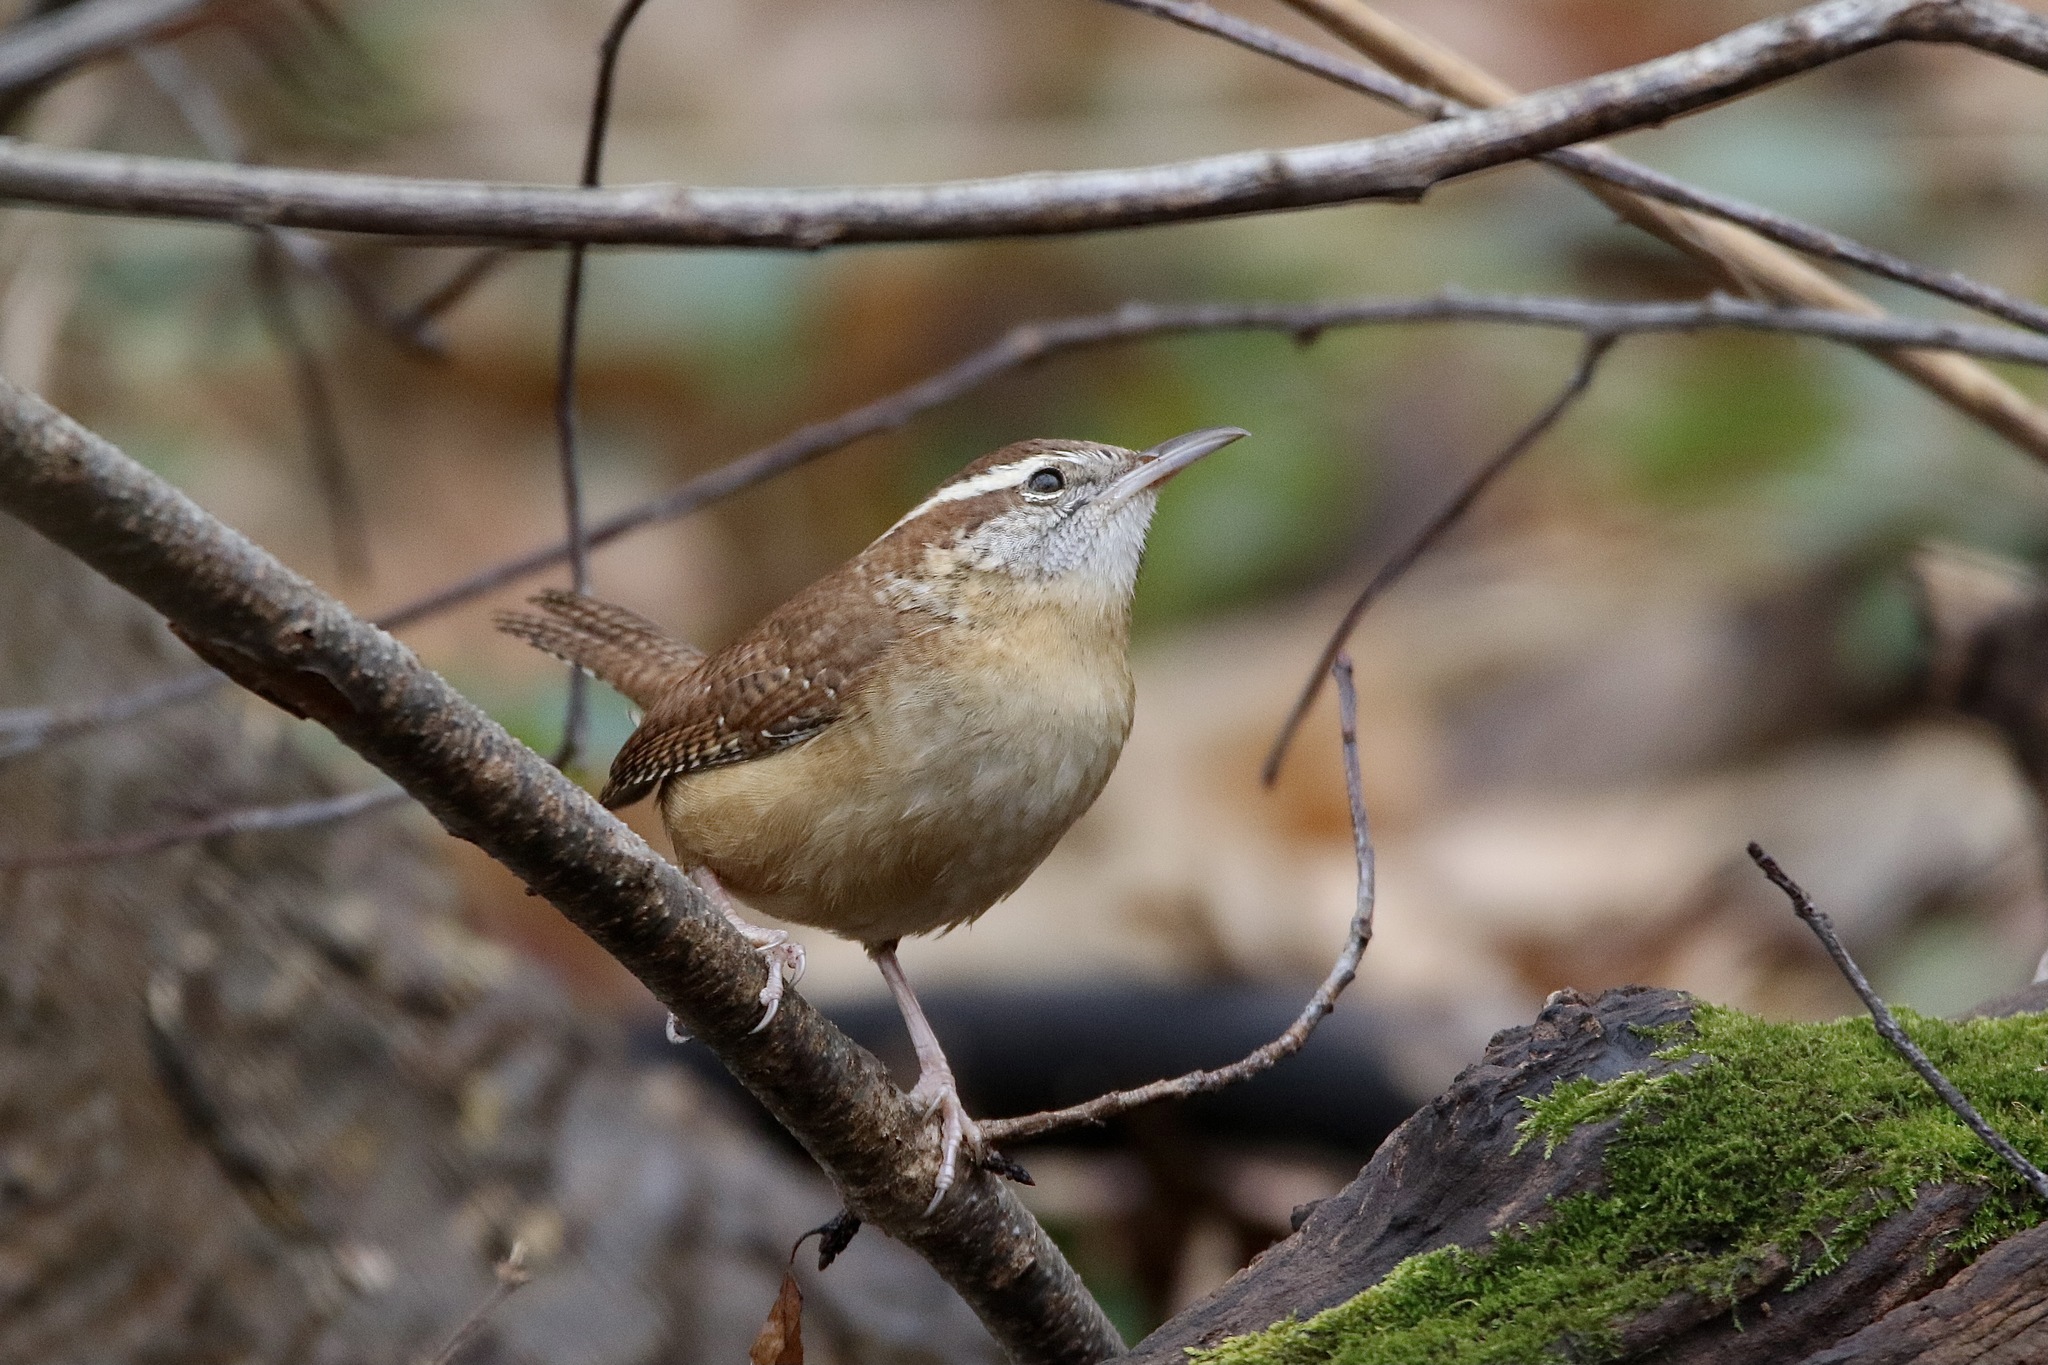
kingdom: Animalia
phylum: Chordata
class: Aves
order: Passeriformes
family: Troglodytidae
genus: Thryothorus
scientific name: Thryothorus ludovicianus
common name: Carolina wren
